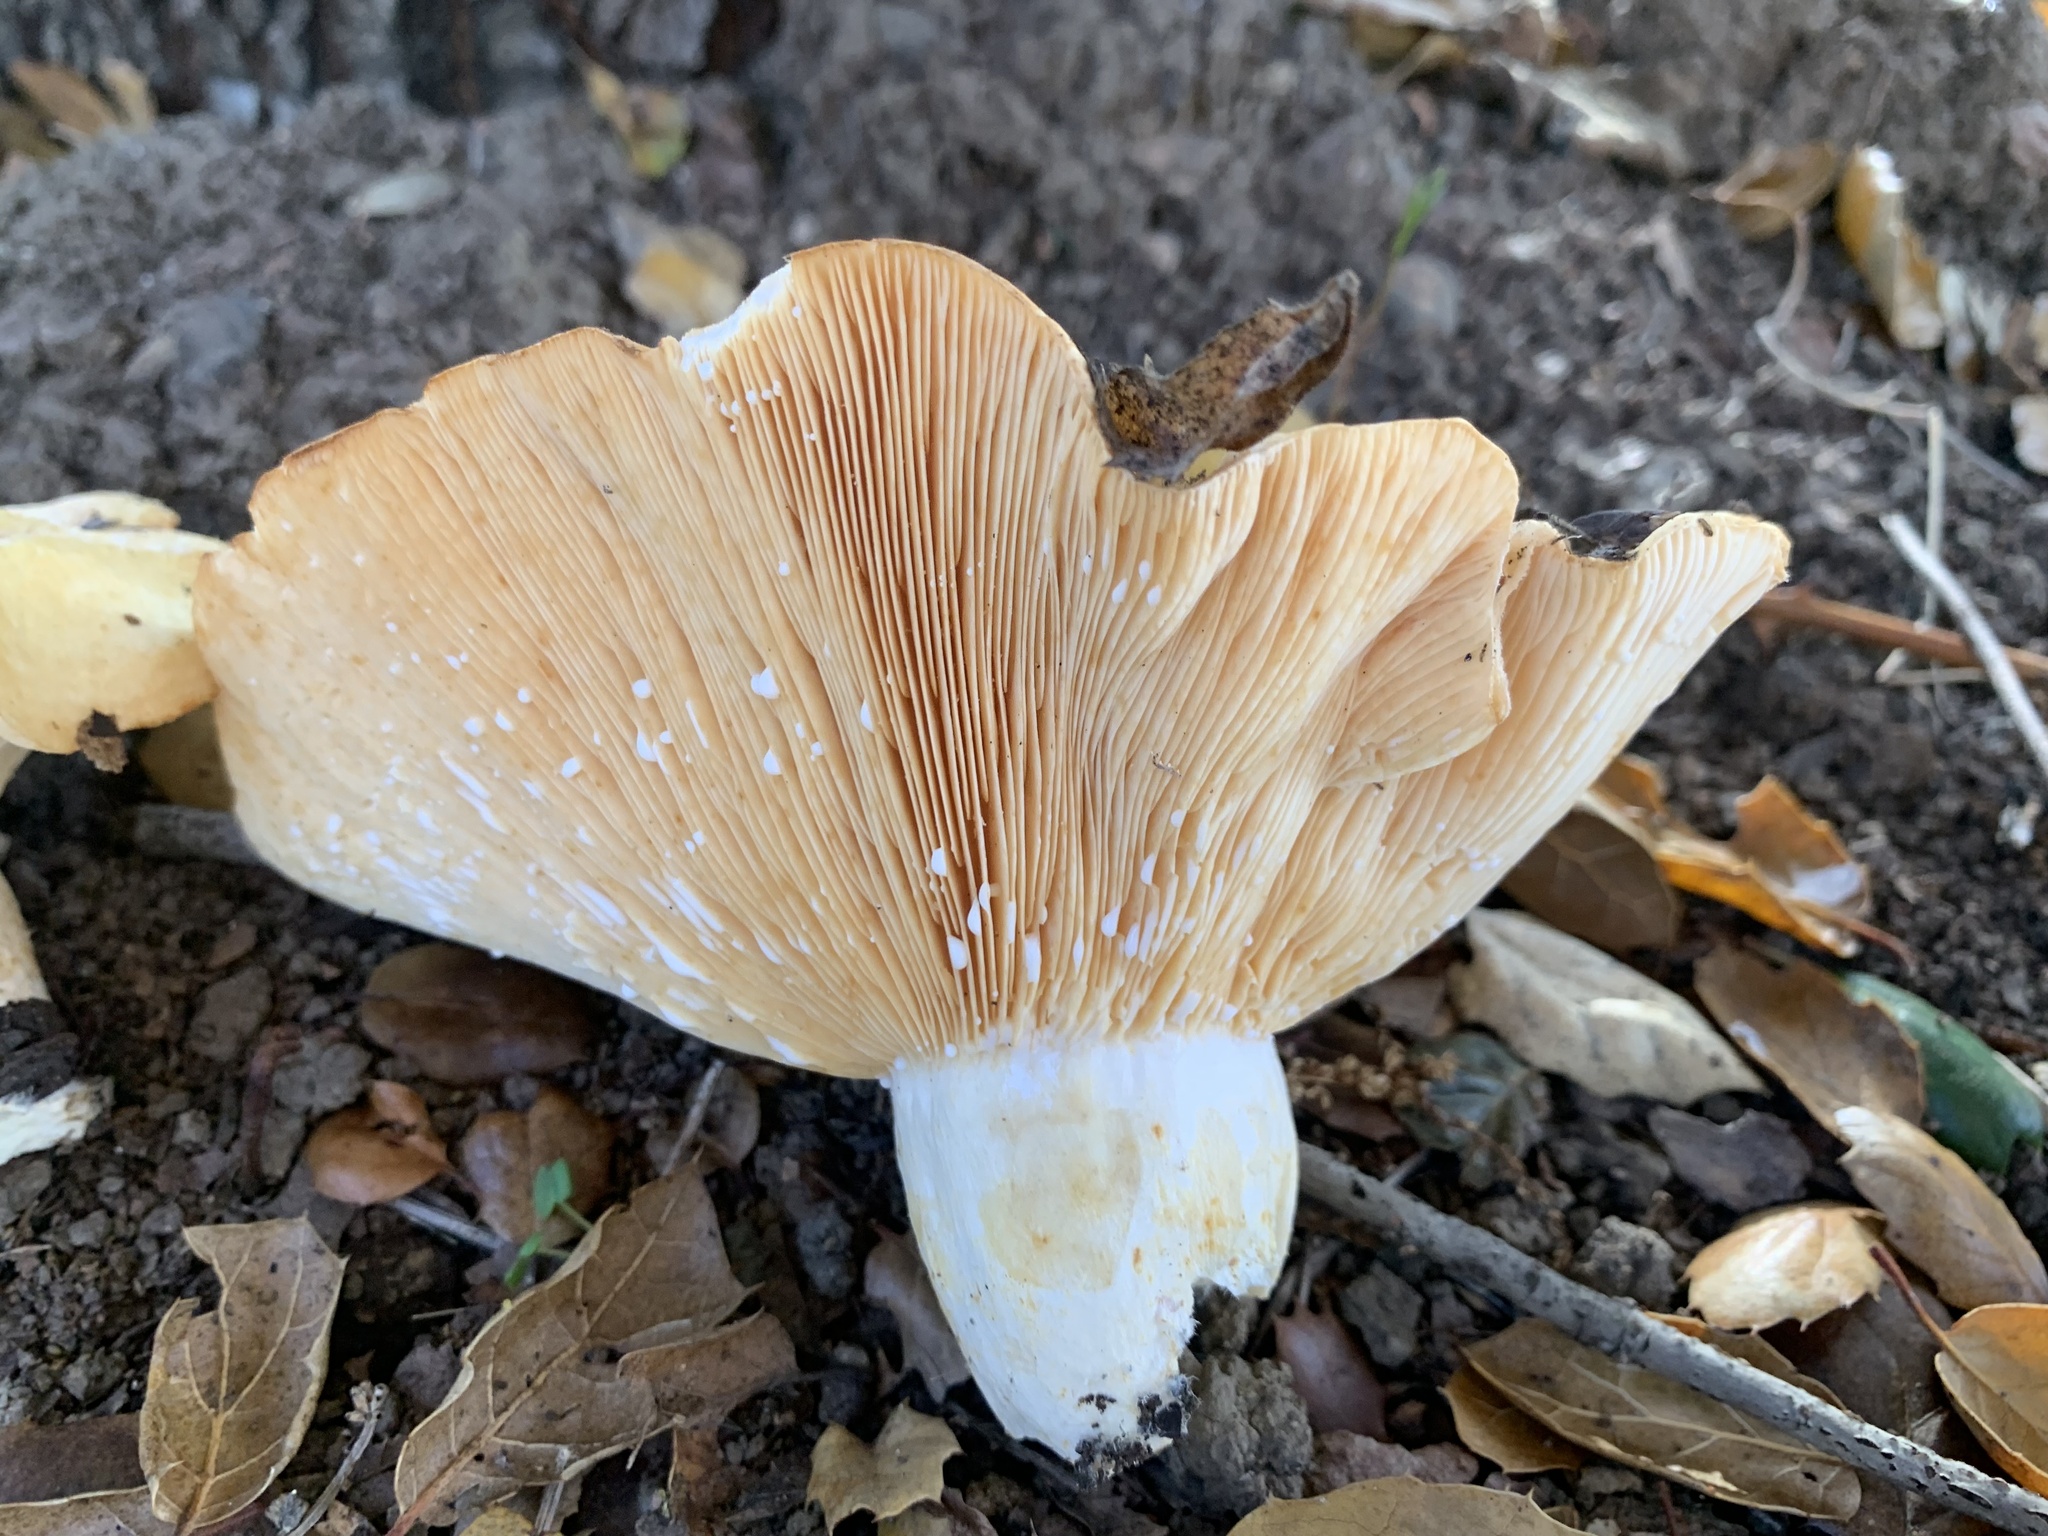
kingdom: Fungi
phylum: Basidiomycota
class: Agaricomycetes
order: Russulales
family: Russulaceae
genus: Lactarius
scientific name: Lactarius alnicola
